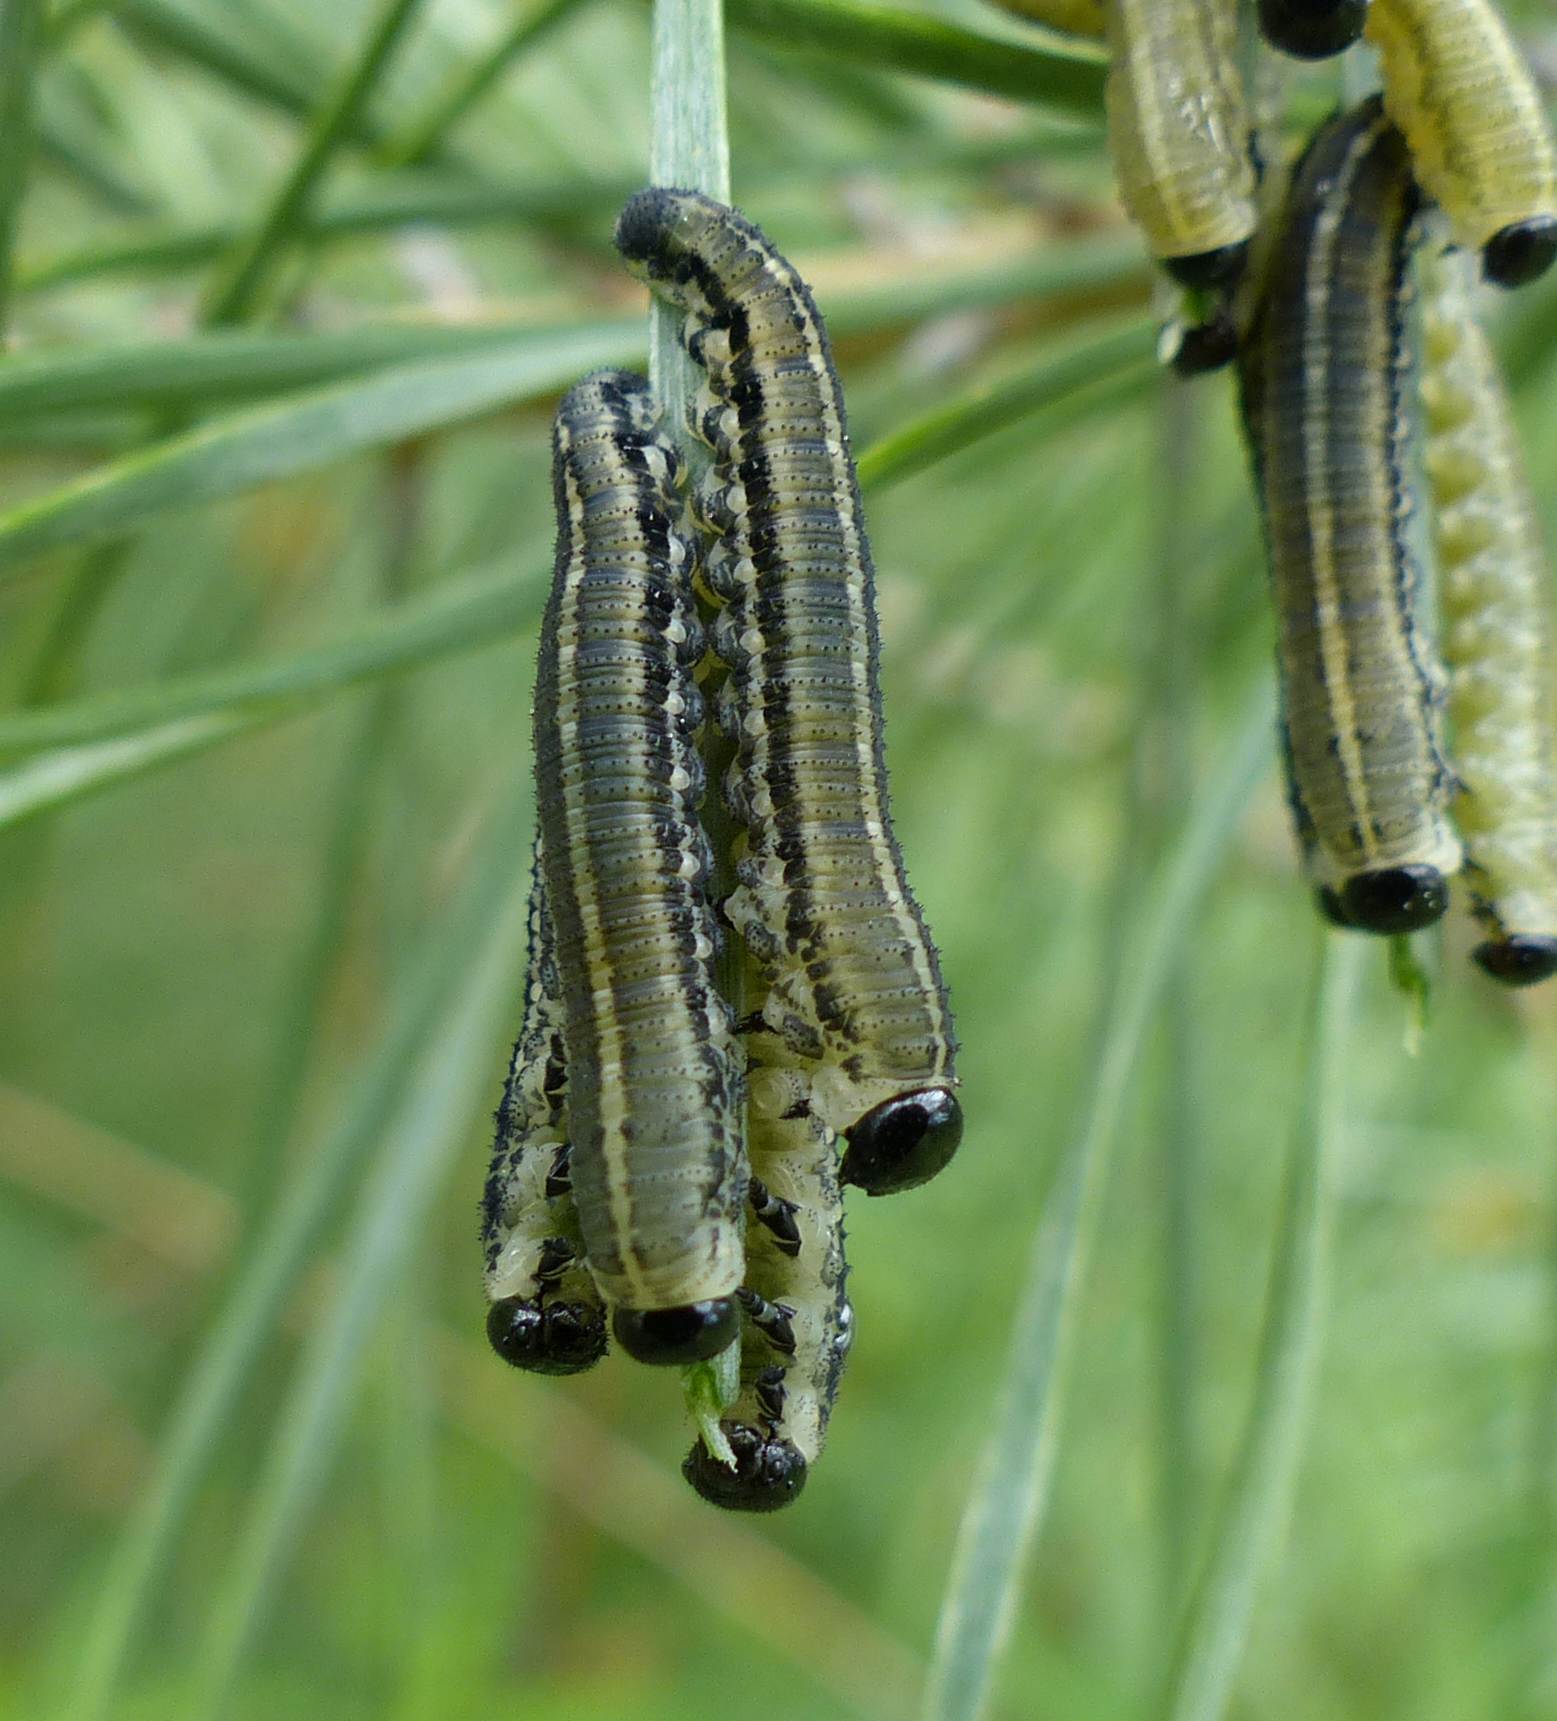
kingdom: Animalia
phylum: Arthropoda
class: Insecta
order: Hymenoptera
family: Diprionidae
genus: Neodiprion
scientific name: Neodiprion sertifer
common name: European pine sawfly
